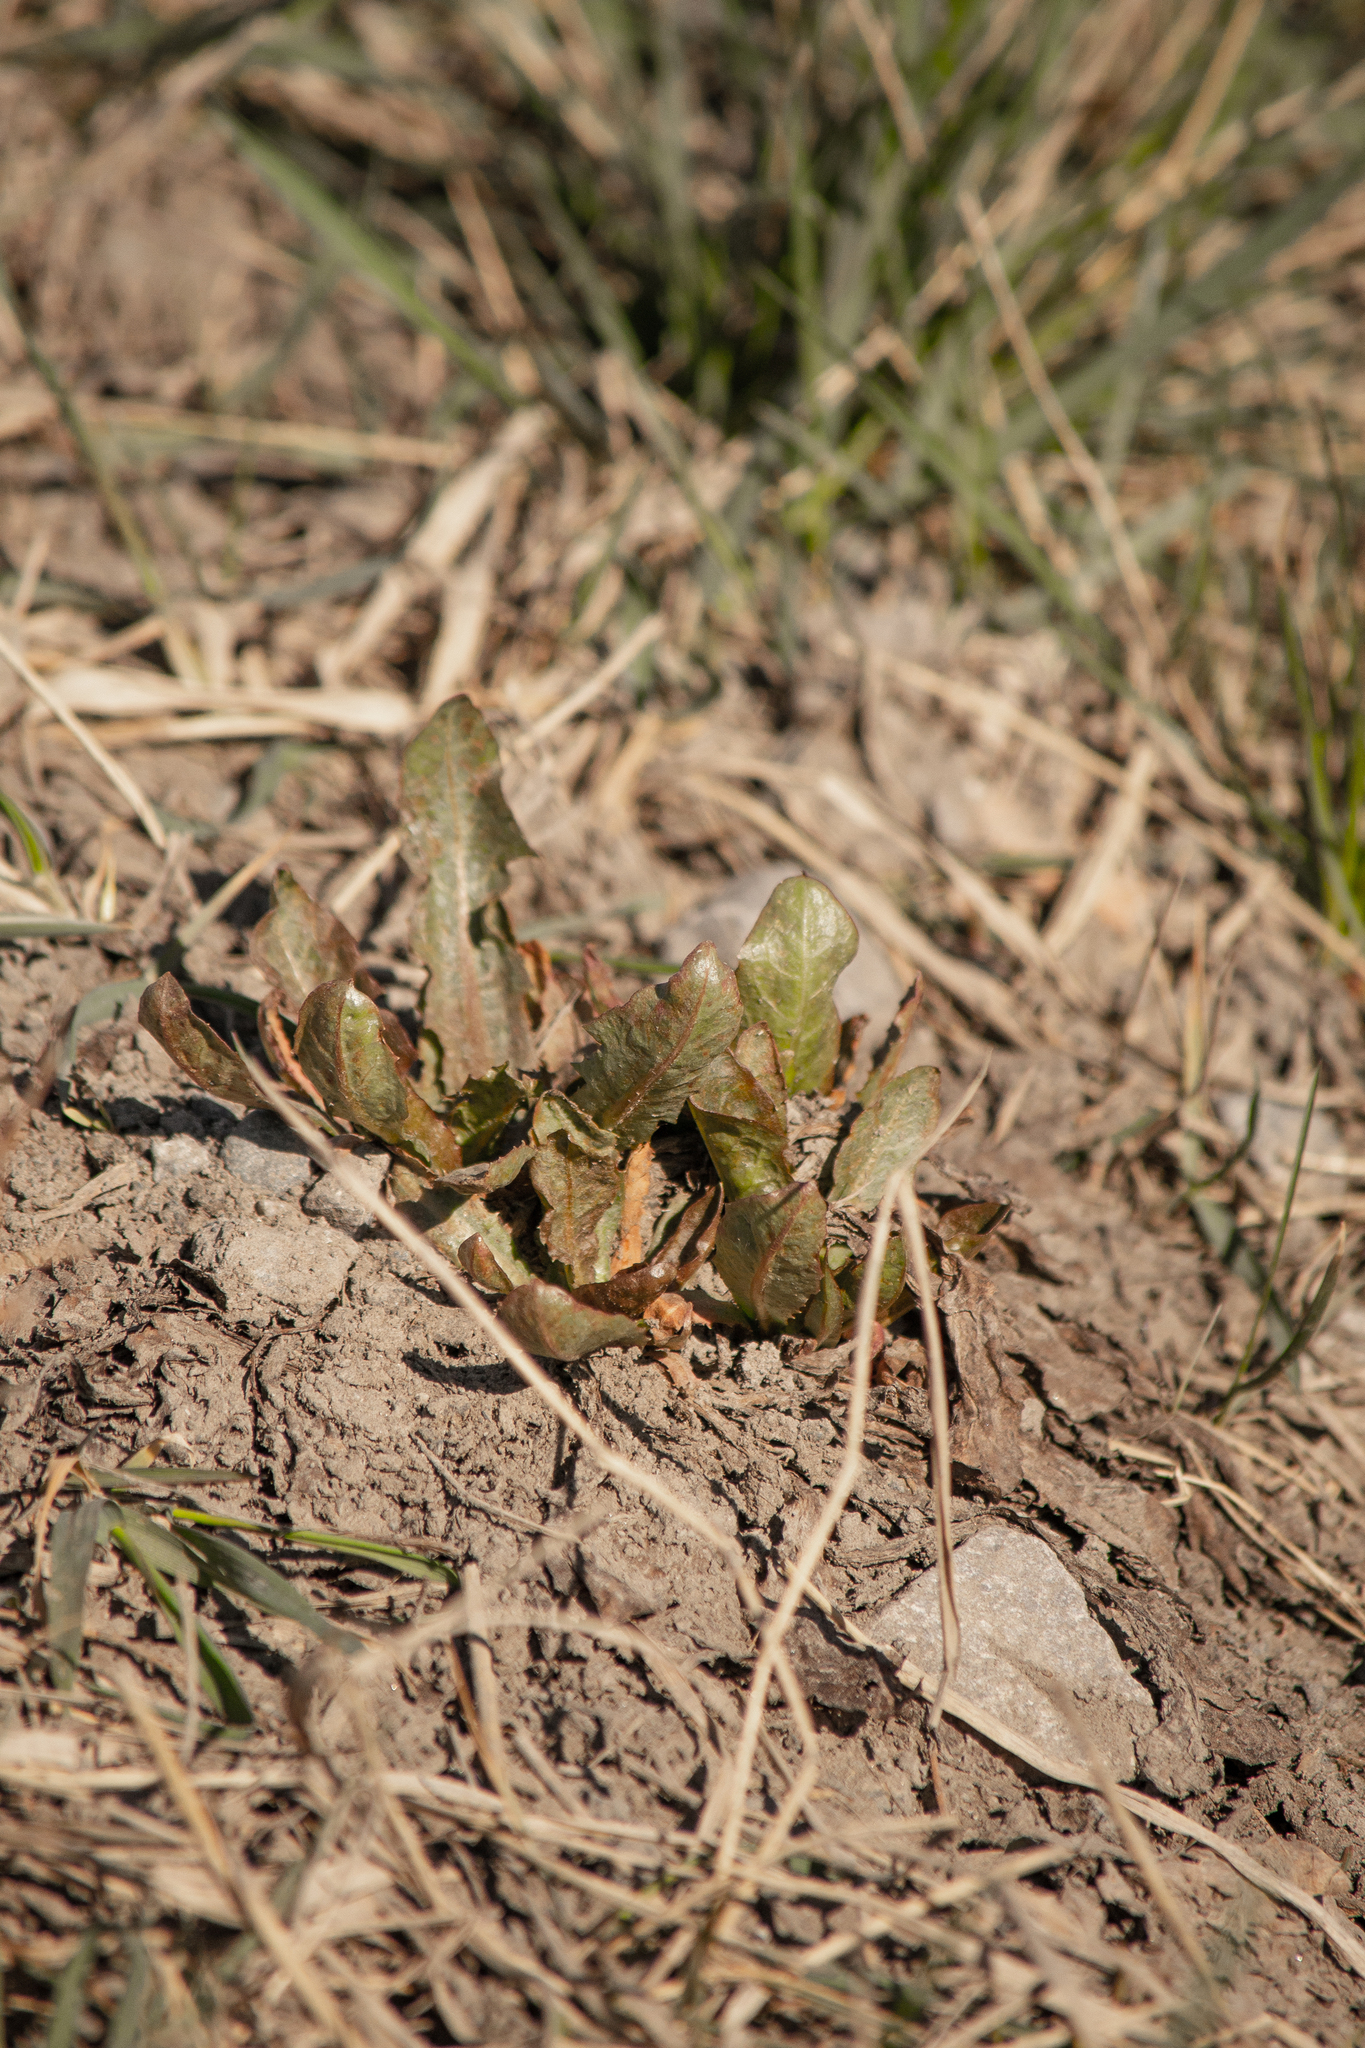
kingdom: Plantae
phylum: Tracheophyta
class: Magnoliopsida
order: Asterales
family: Asteraceae
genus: Taraxacum
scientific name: Taraxacum officinale
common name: Common dandelion
